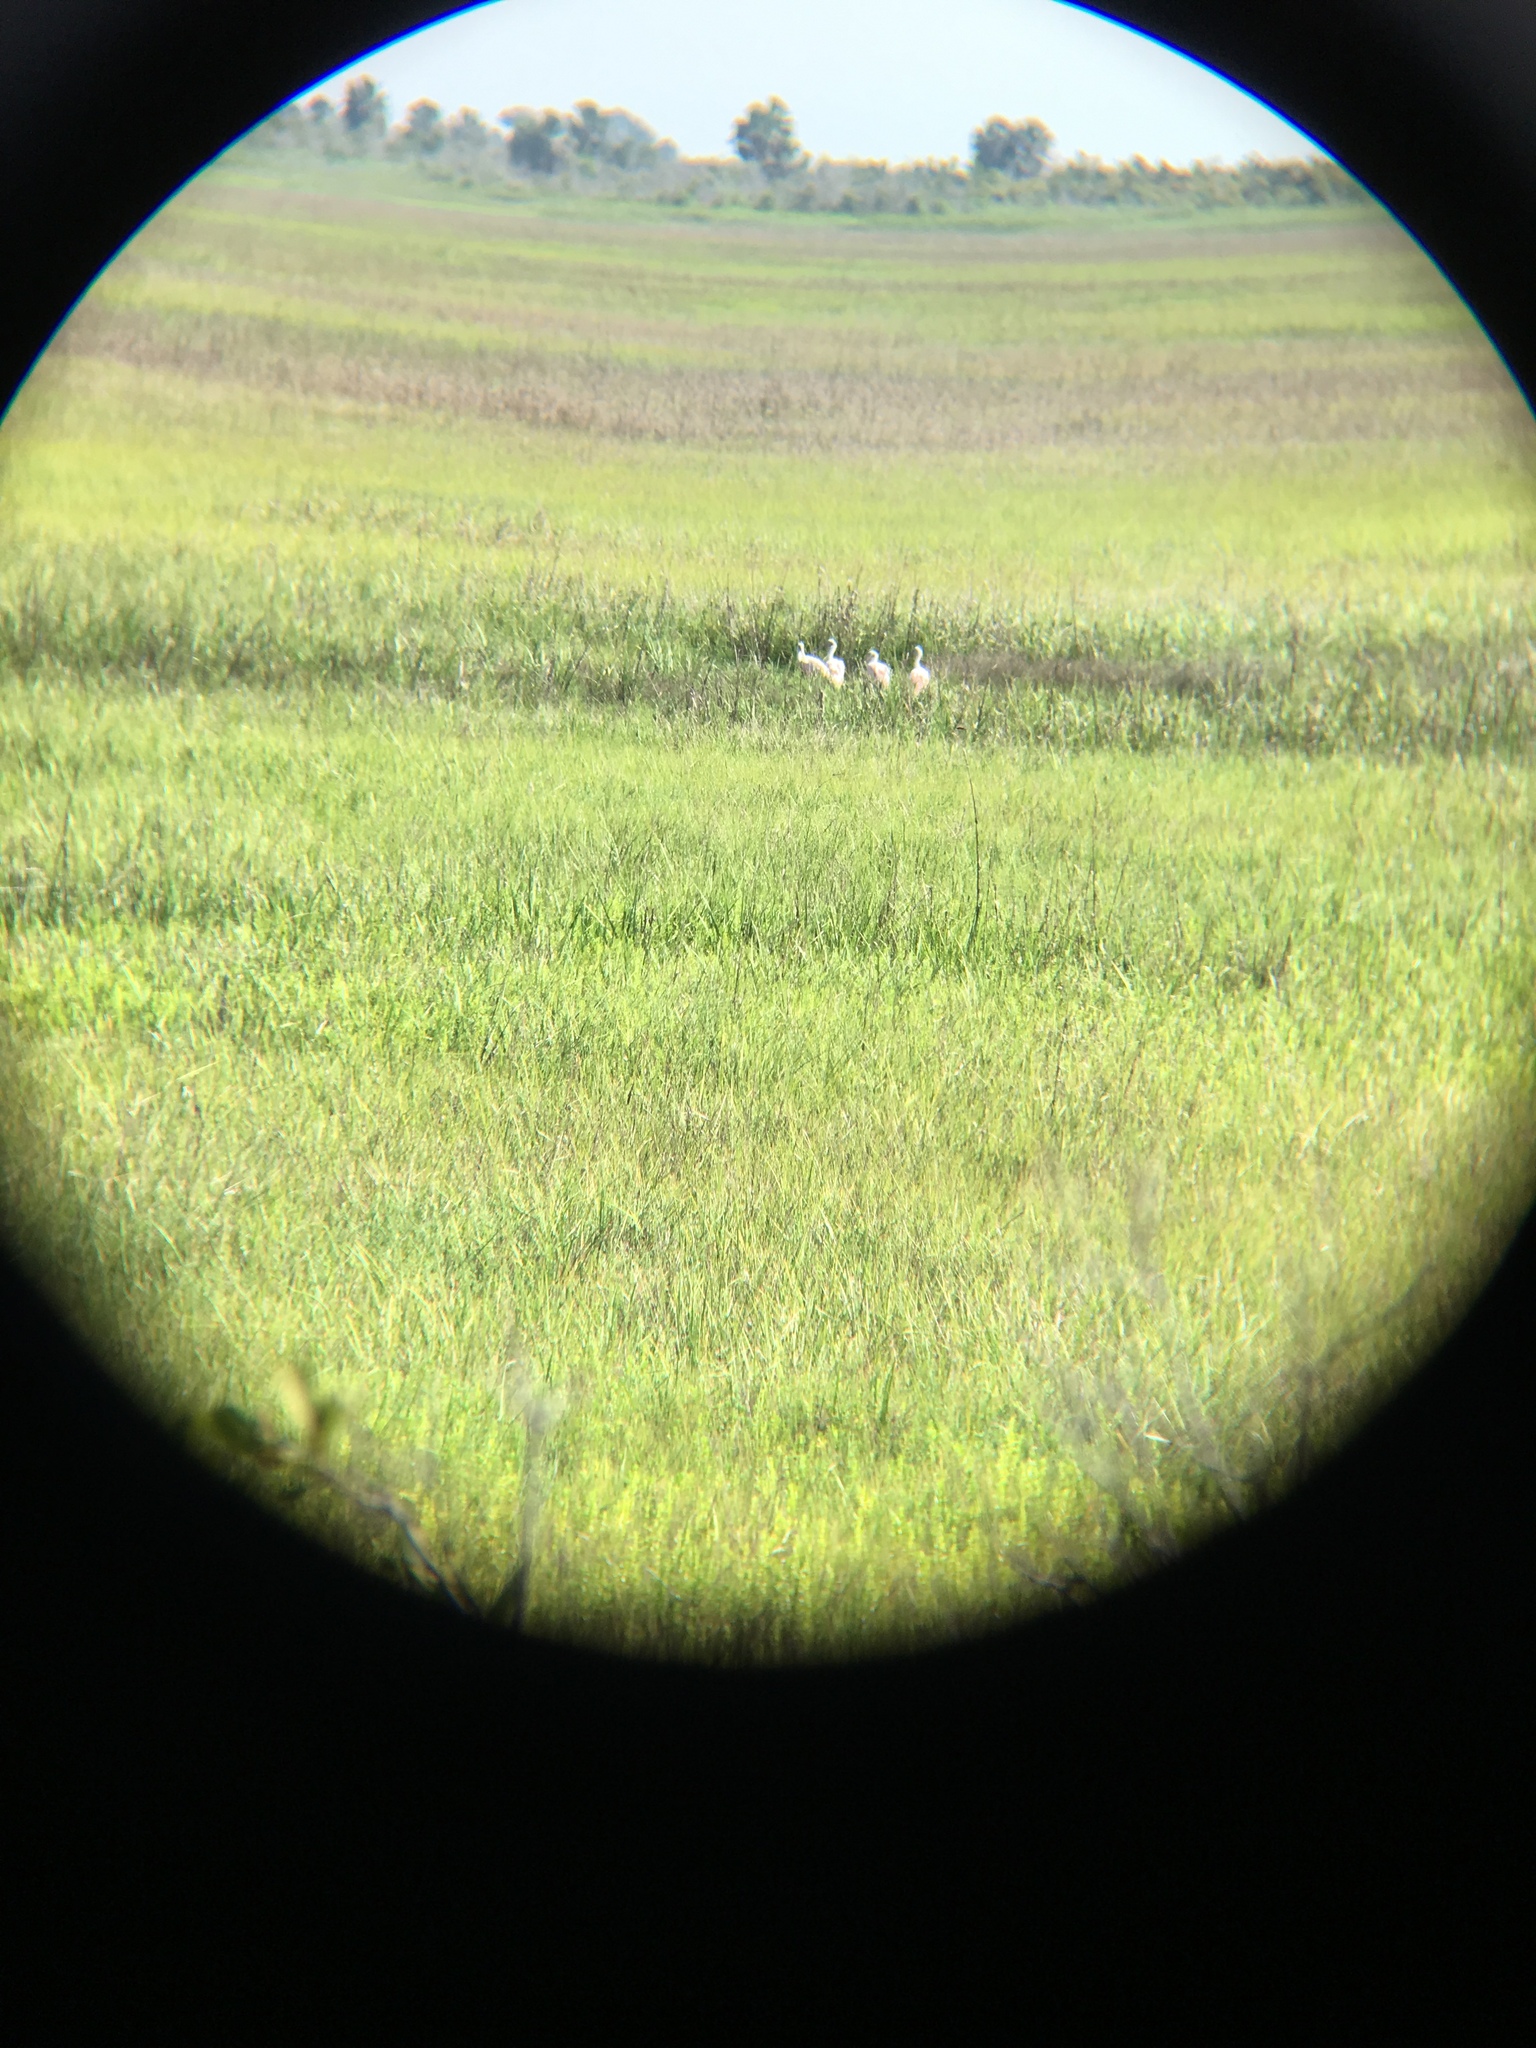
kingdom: Animalia
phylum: Chordata
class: Aves
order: Pelecaniformes
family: Threskiornithidae
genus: Platalea
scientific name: Platalea ajaja
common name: Roseate spoonbill
